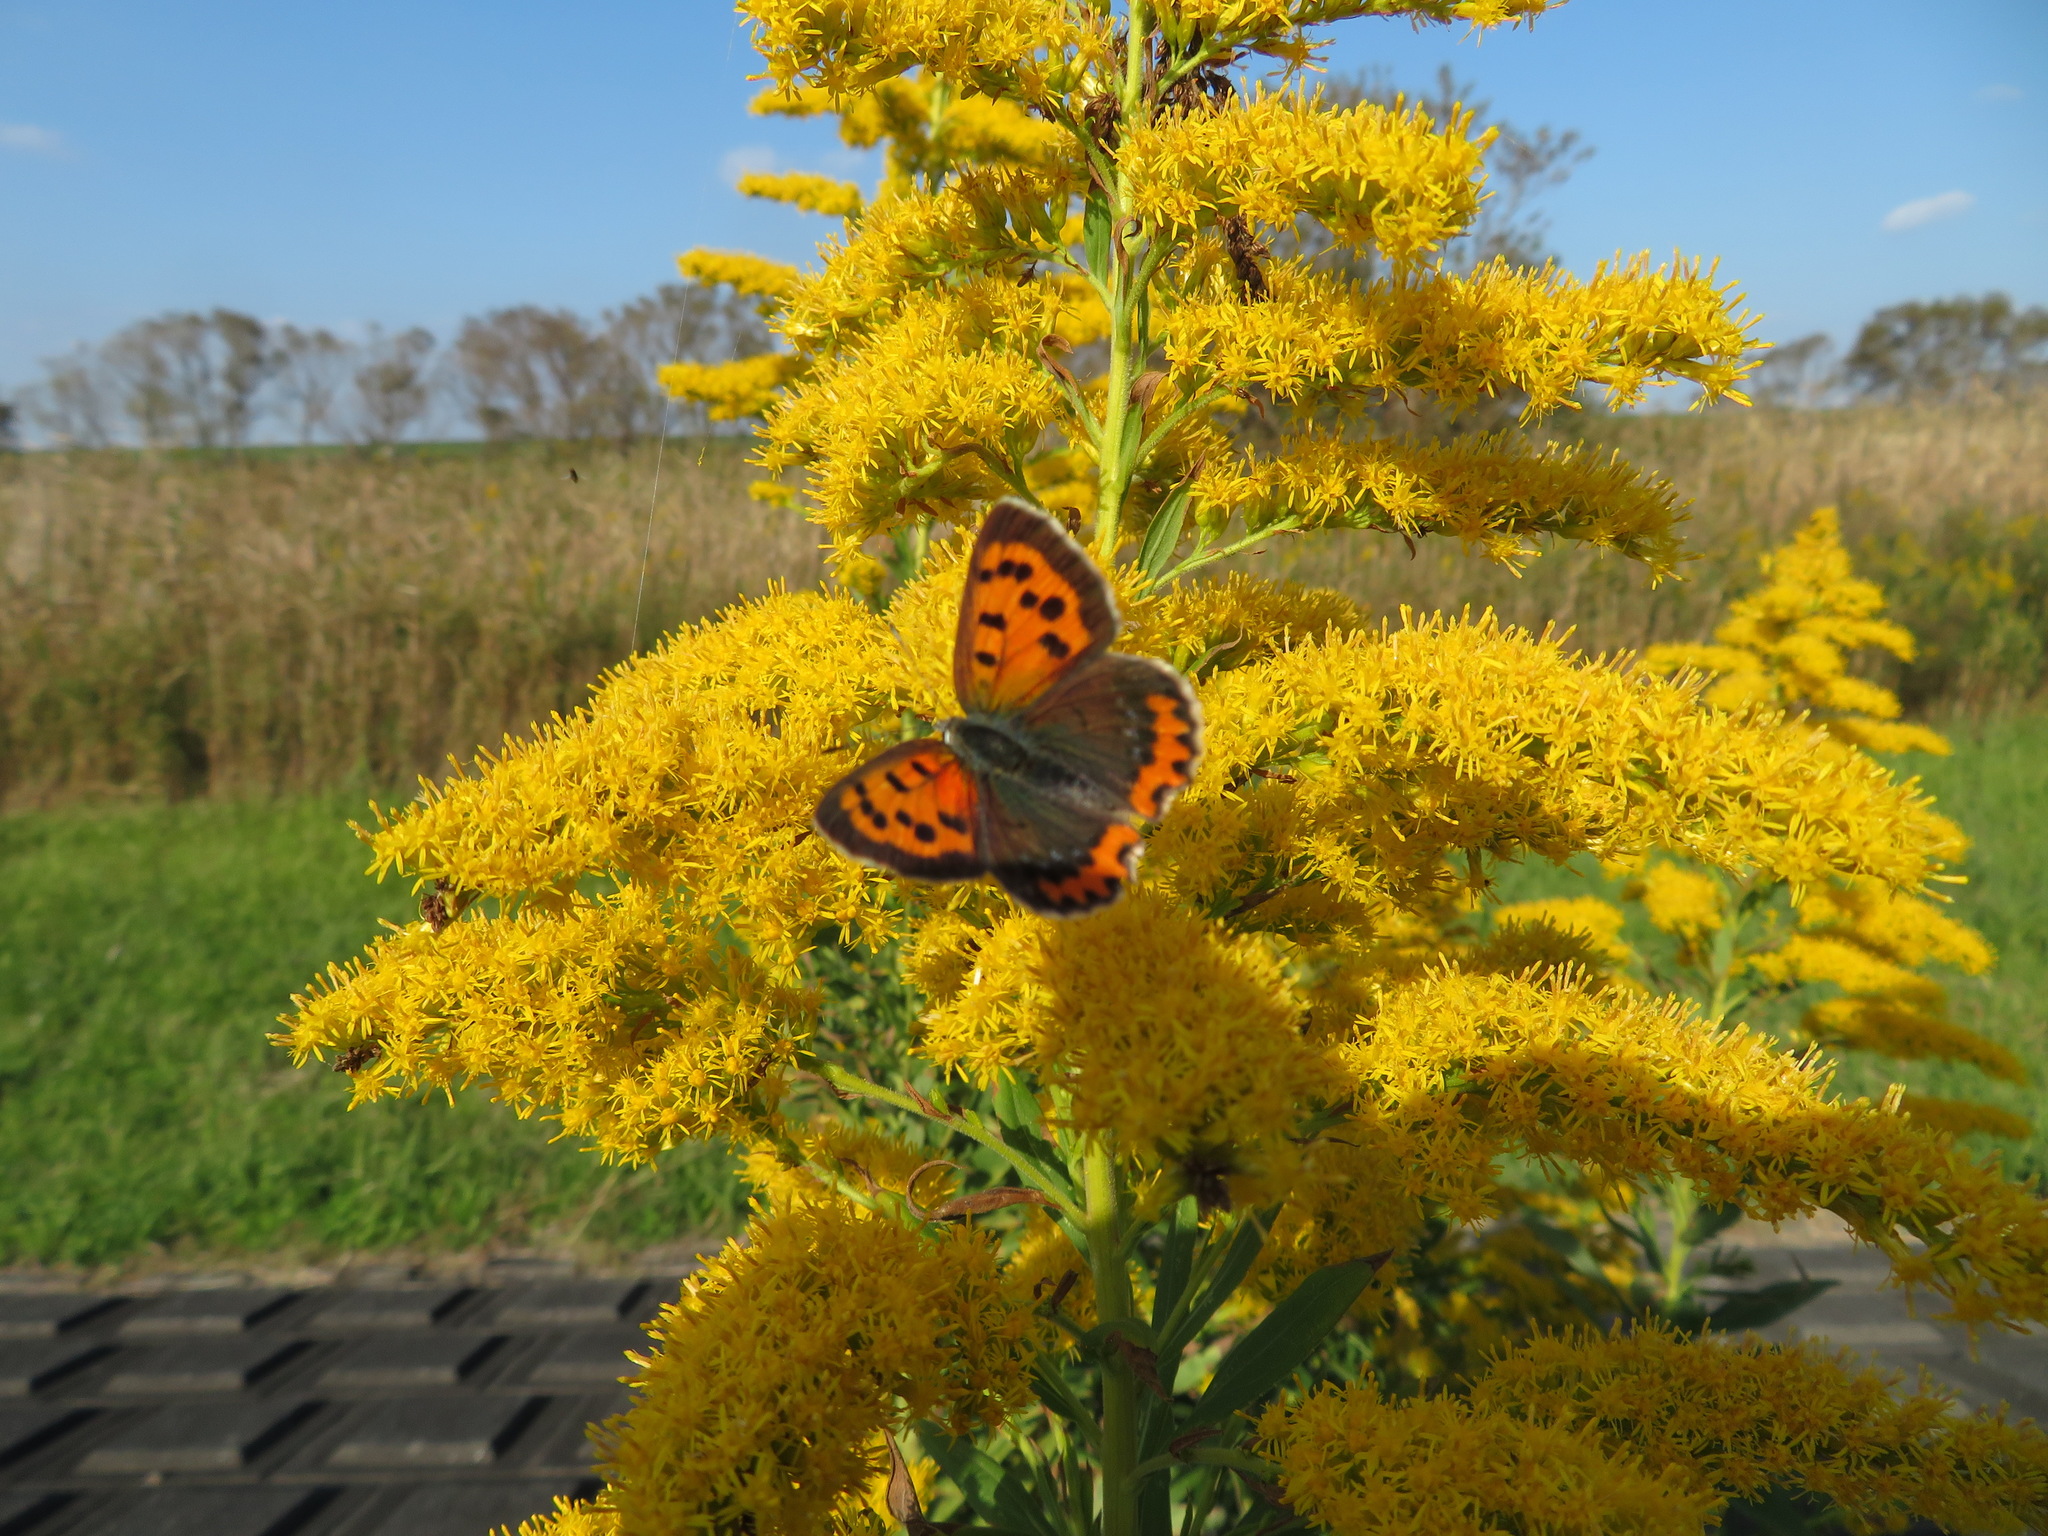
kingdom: Animalia
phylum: Arthropoda
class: Insecta
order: Lepidoptera
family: Lycaenidae
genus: Lycaena
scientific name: Lycaena phlaeas
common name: Small copper
